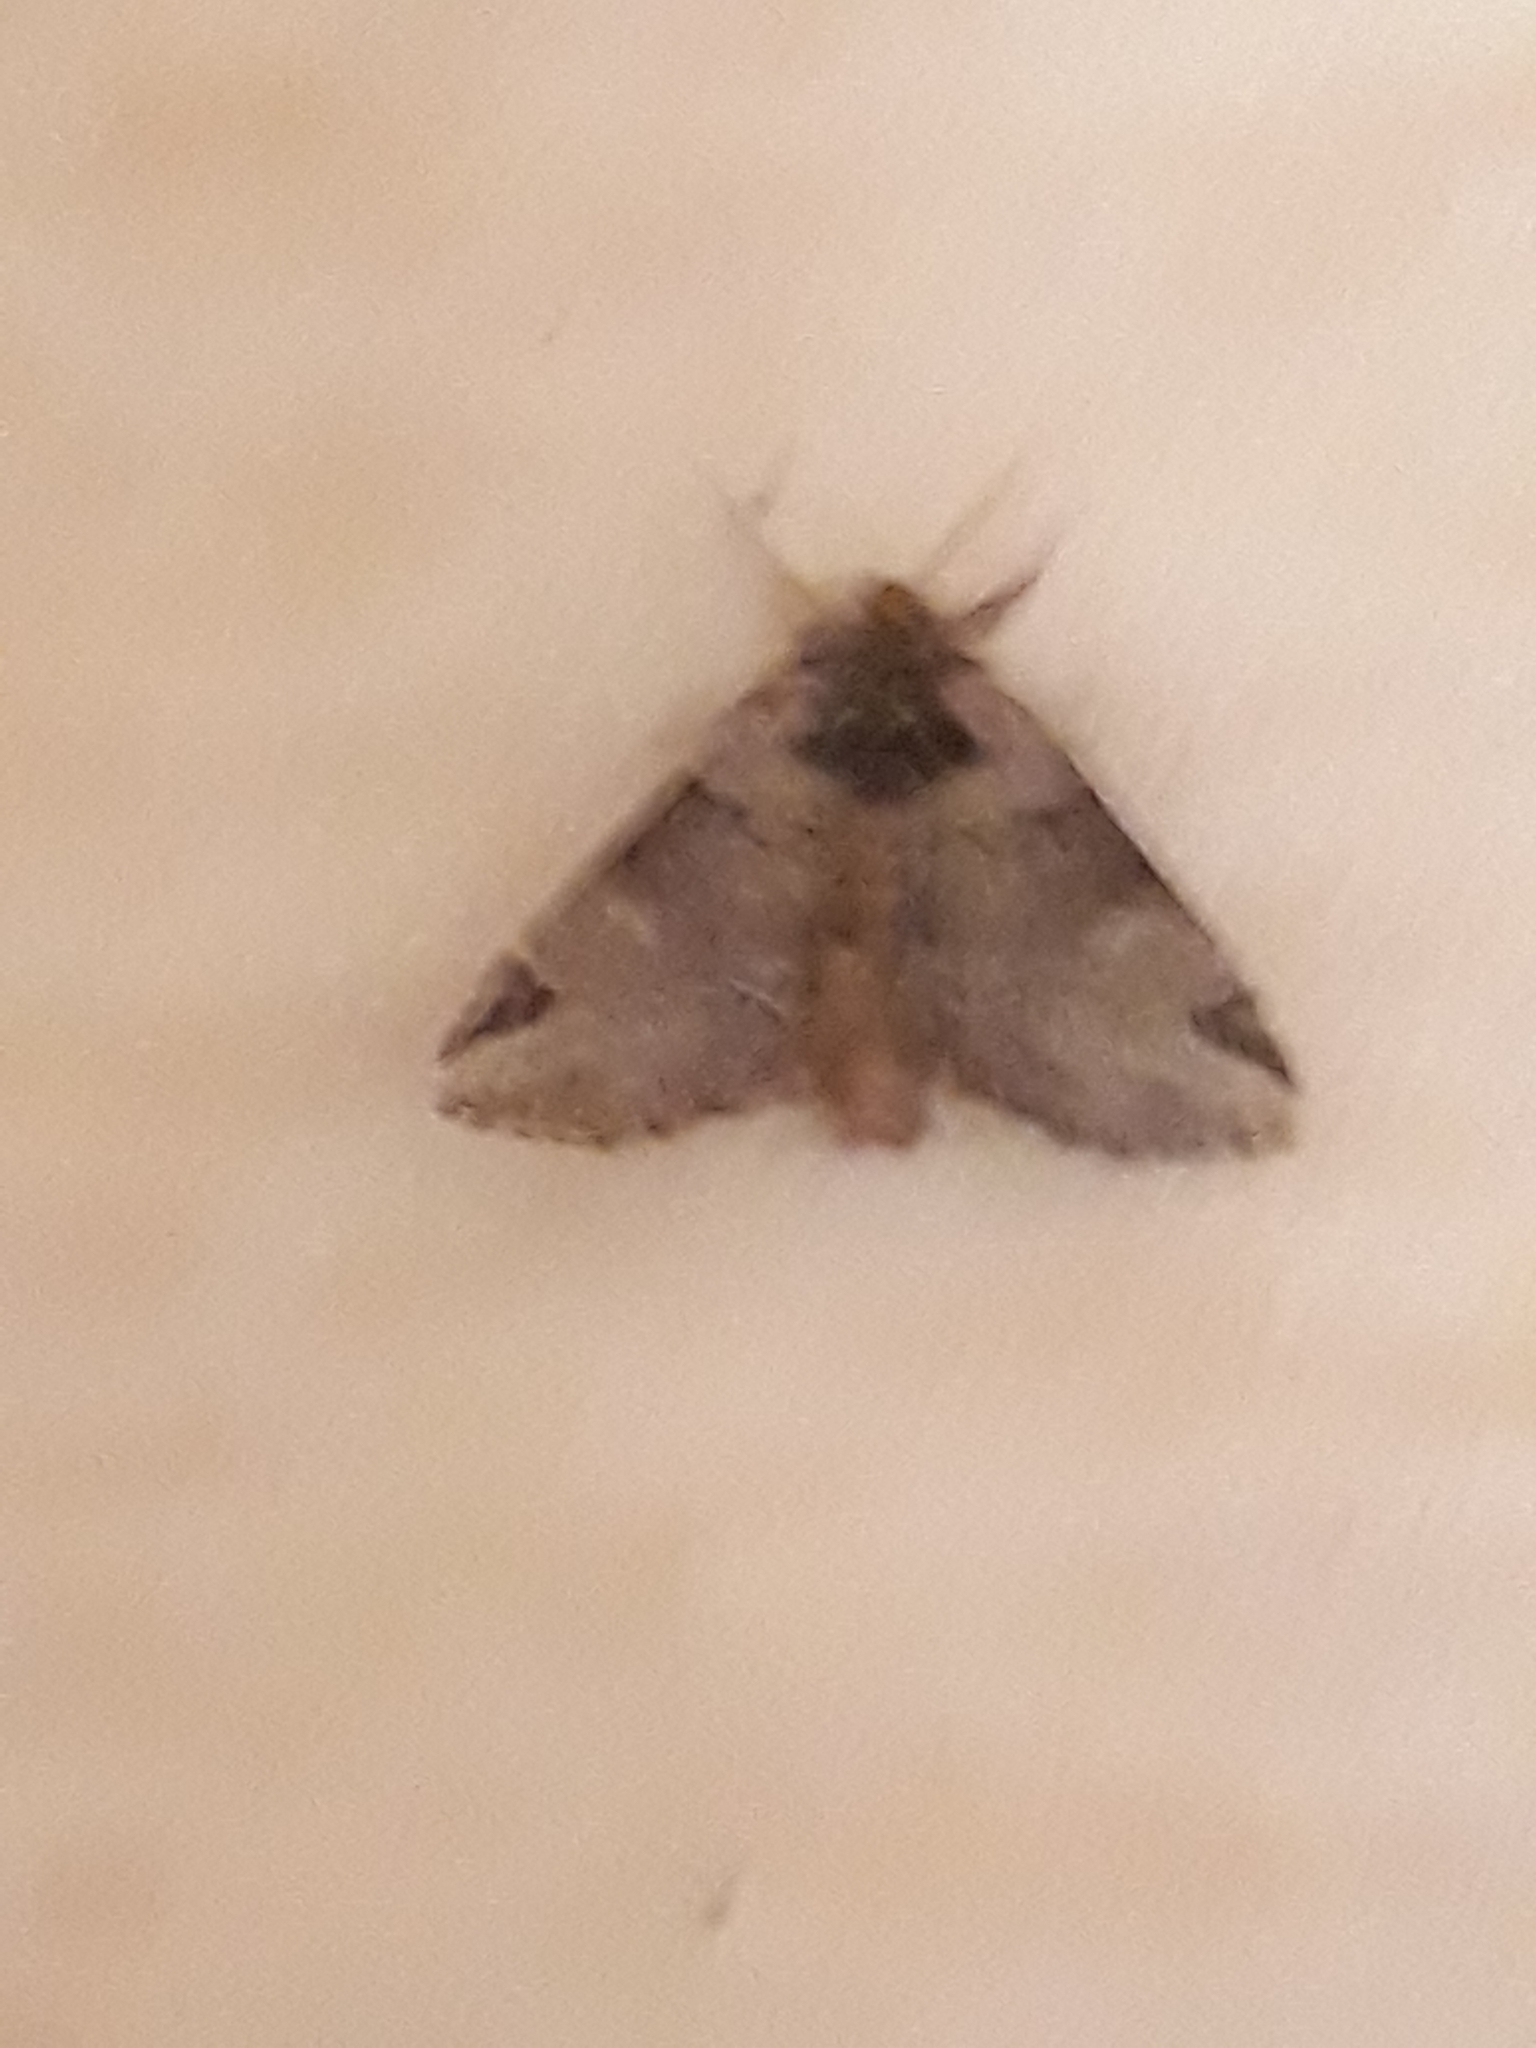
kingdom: Animalia
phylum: Arthropoda
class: Insecta
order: Lepidoptera
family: Notodontidae
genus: Drymonia
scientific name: Drymonia obliterata
